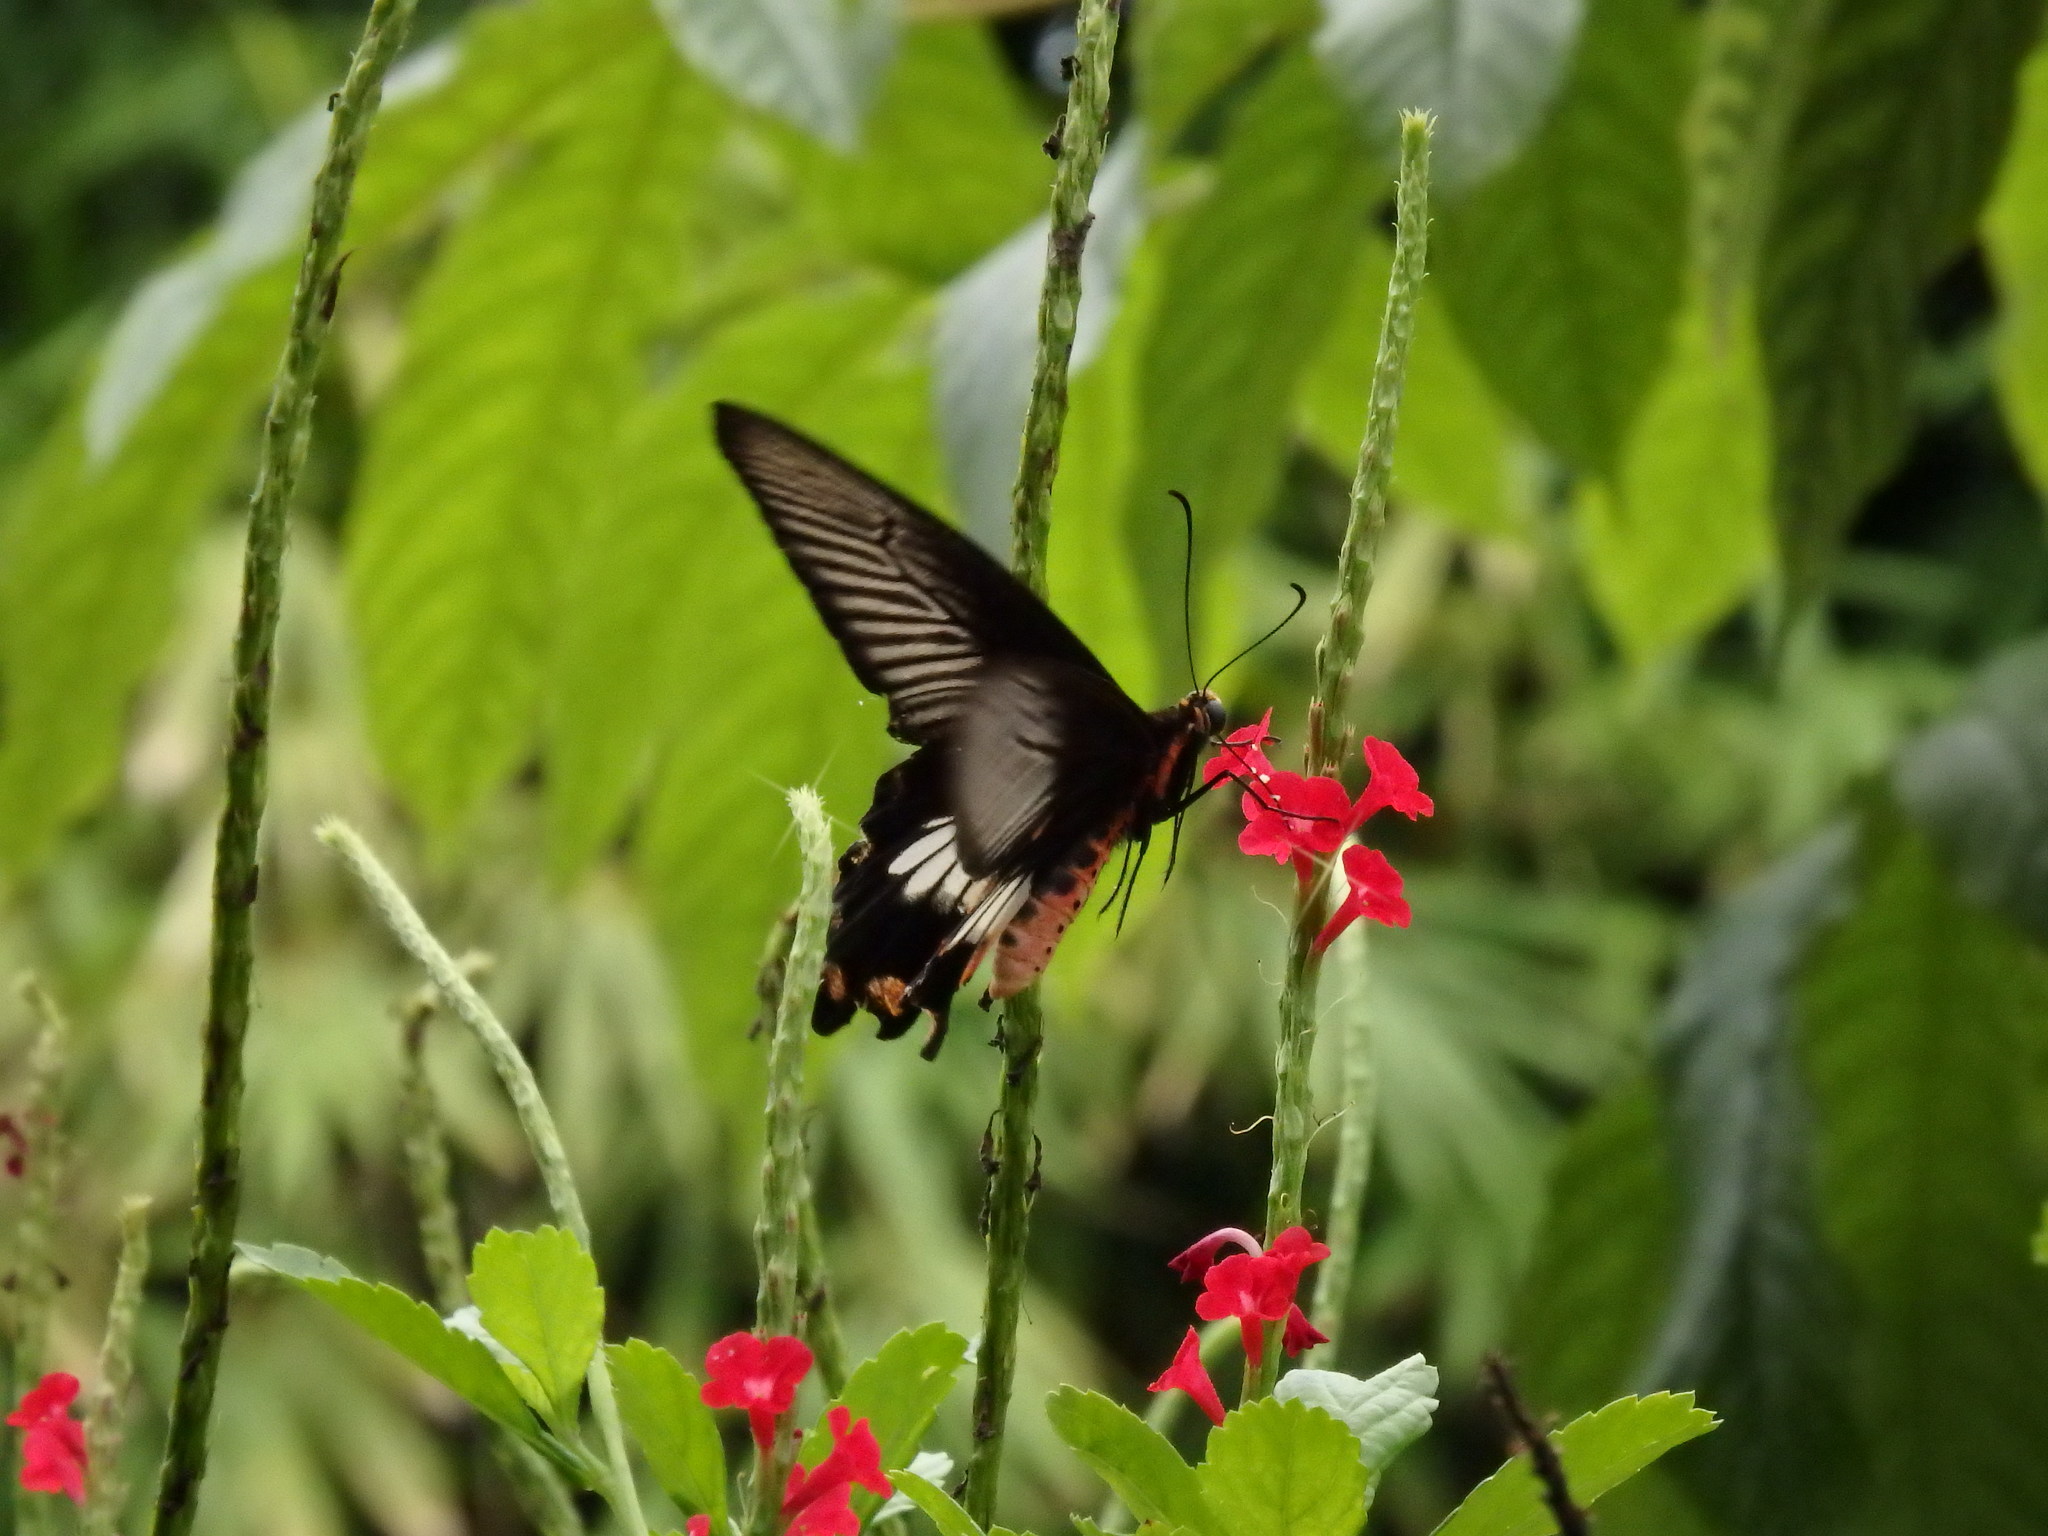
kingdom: Animalia
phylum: Arthropoda
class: Insecta
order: Lepidoptera
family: Papilionidae
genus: Pachliopta
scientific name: Pachliopta aristolochiae
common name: Common rose
